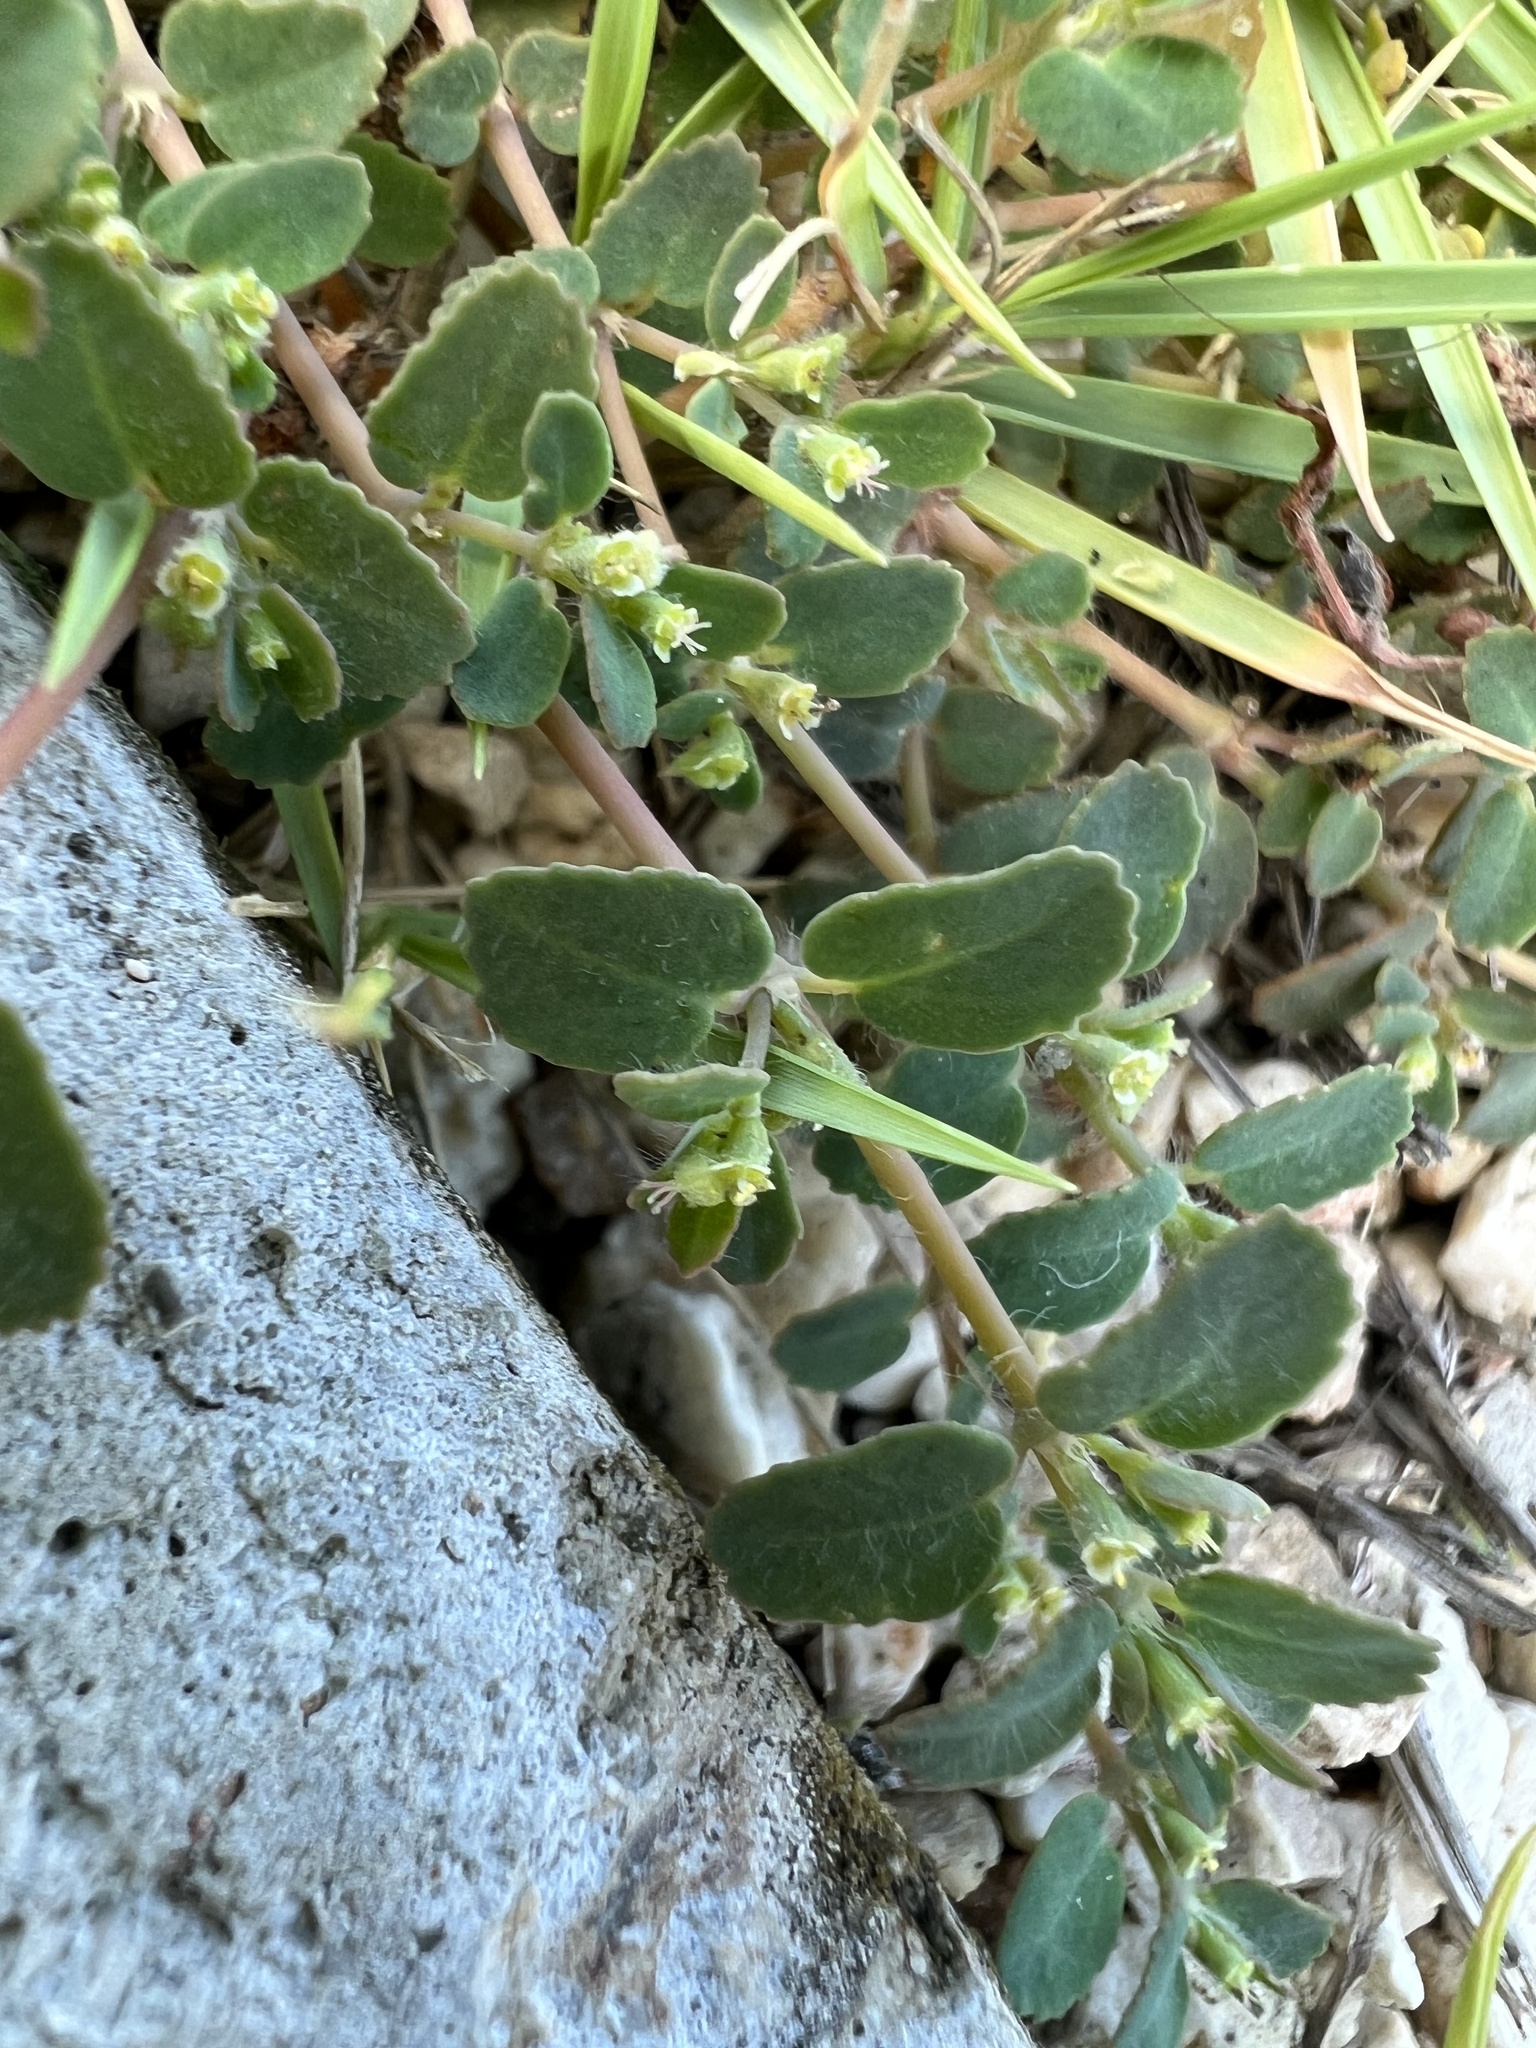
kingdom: Plantae
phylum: Tracheophyta
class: Magnoliopsida
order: Malpighiales
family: Euphorbiaceae
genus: Euphorbia
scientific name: Euphorbia cozumelensis
